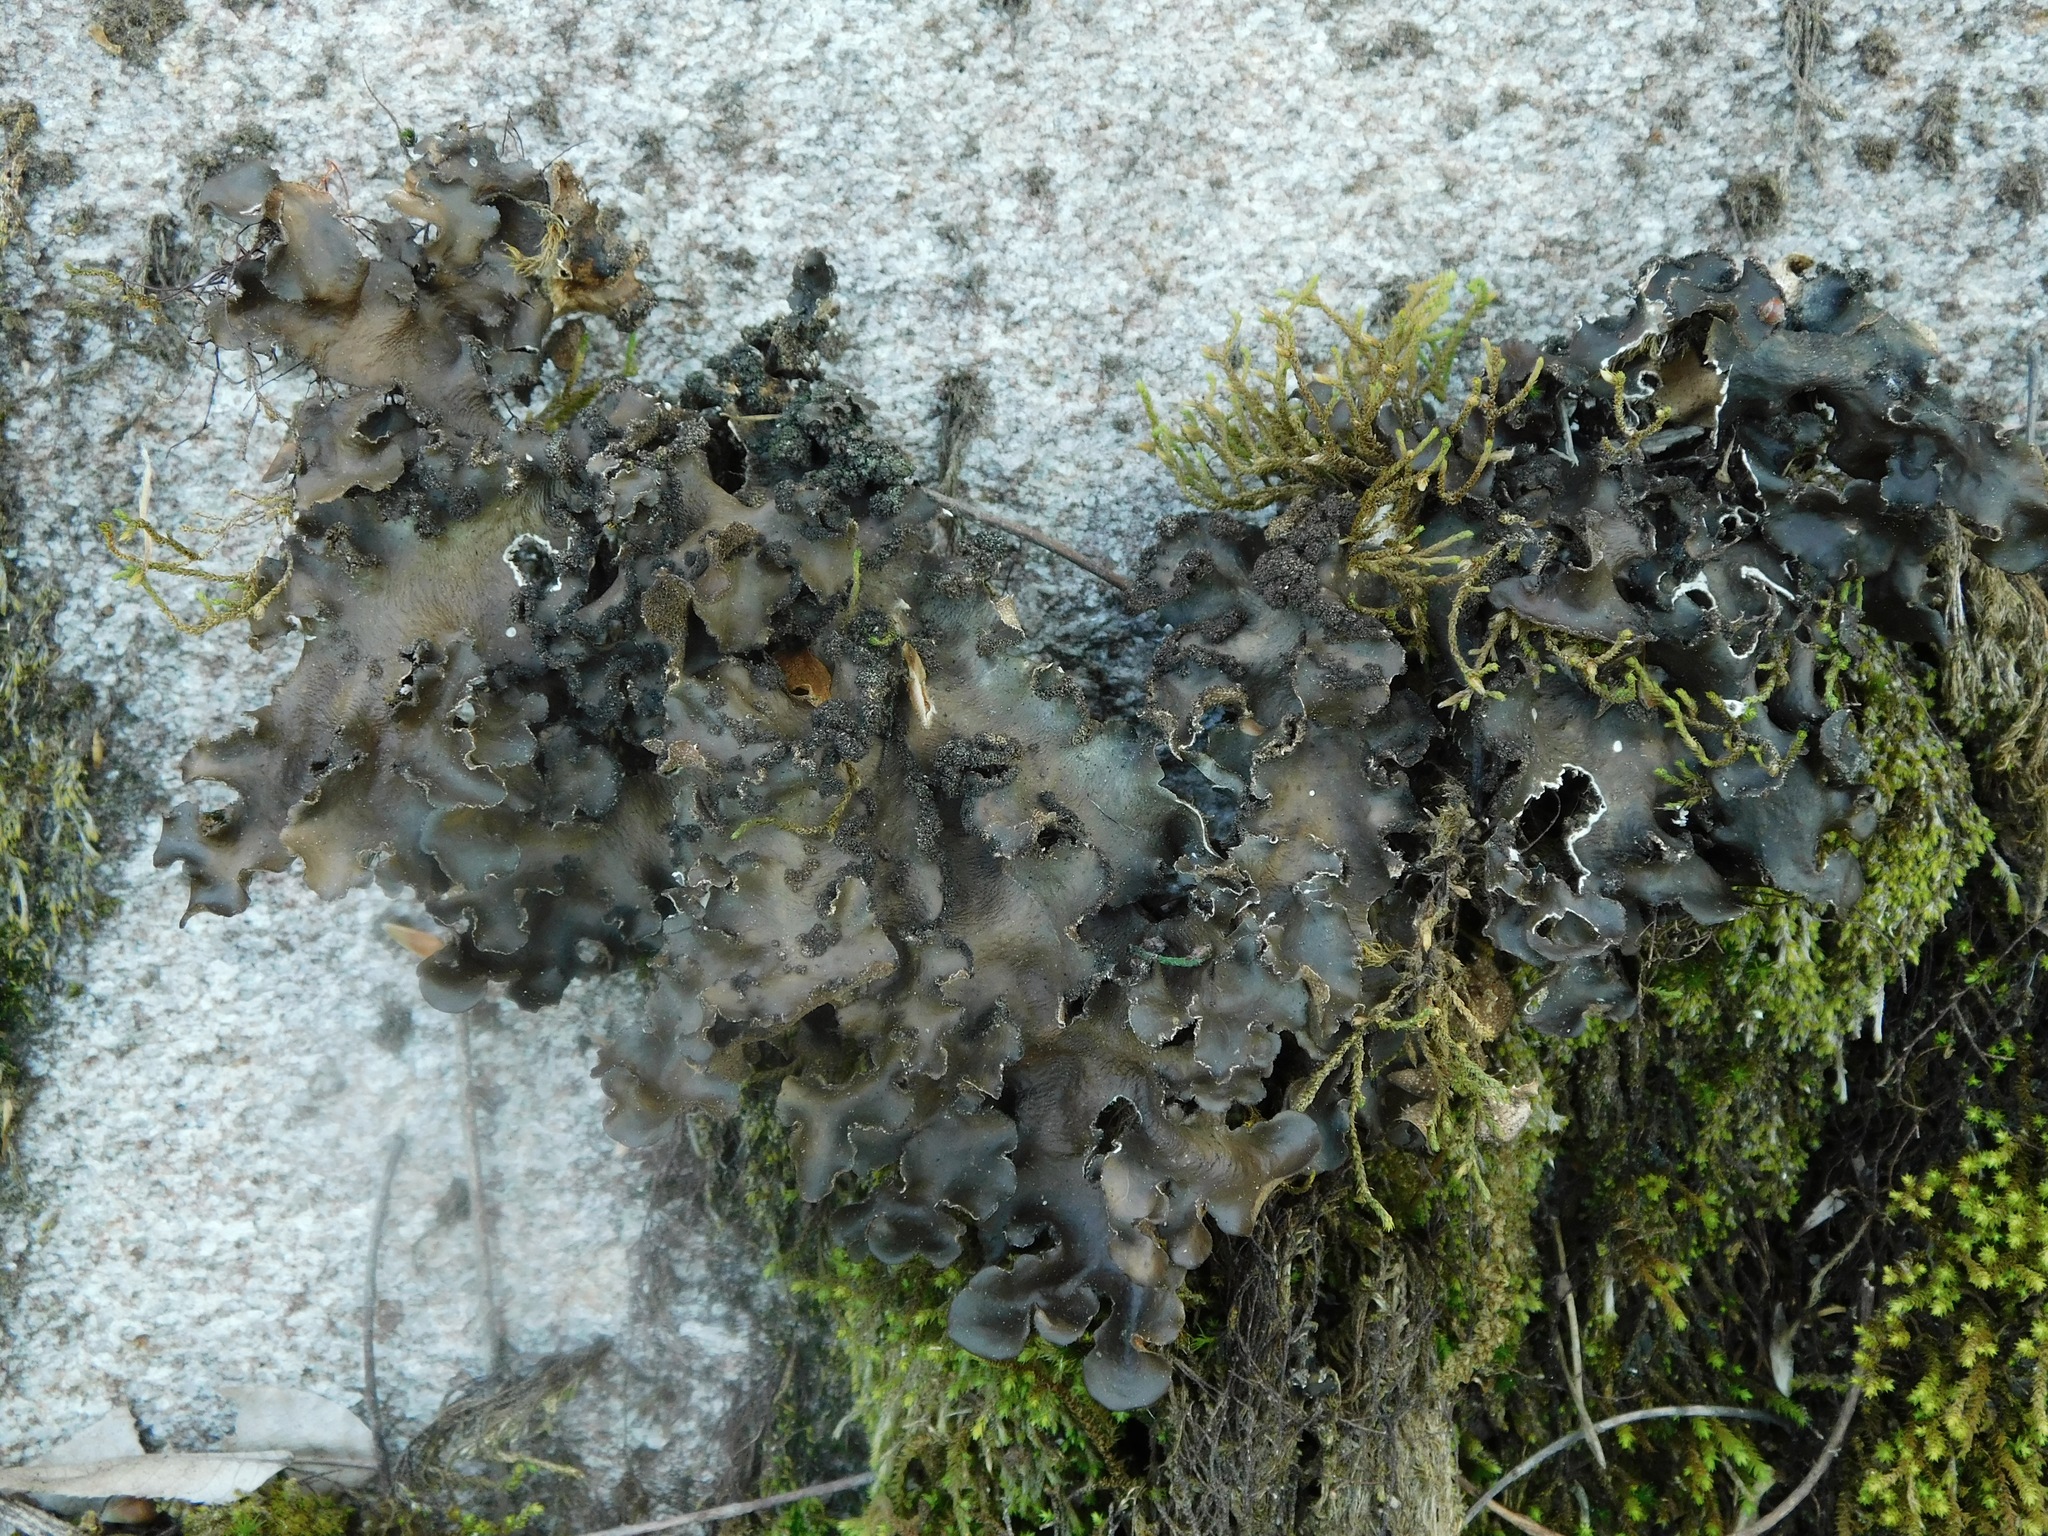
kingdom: Fungi
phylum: Ascomycota
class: Lecanoromycetes
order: Peltigerales
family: Lobariaceae
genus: Sticta
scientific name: Sticta beauvoisii
